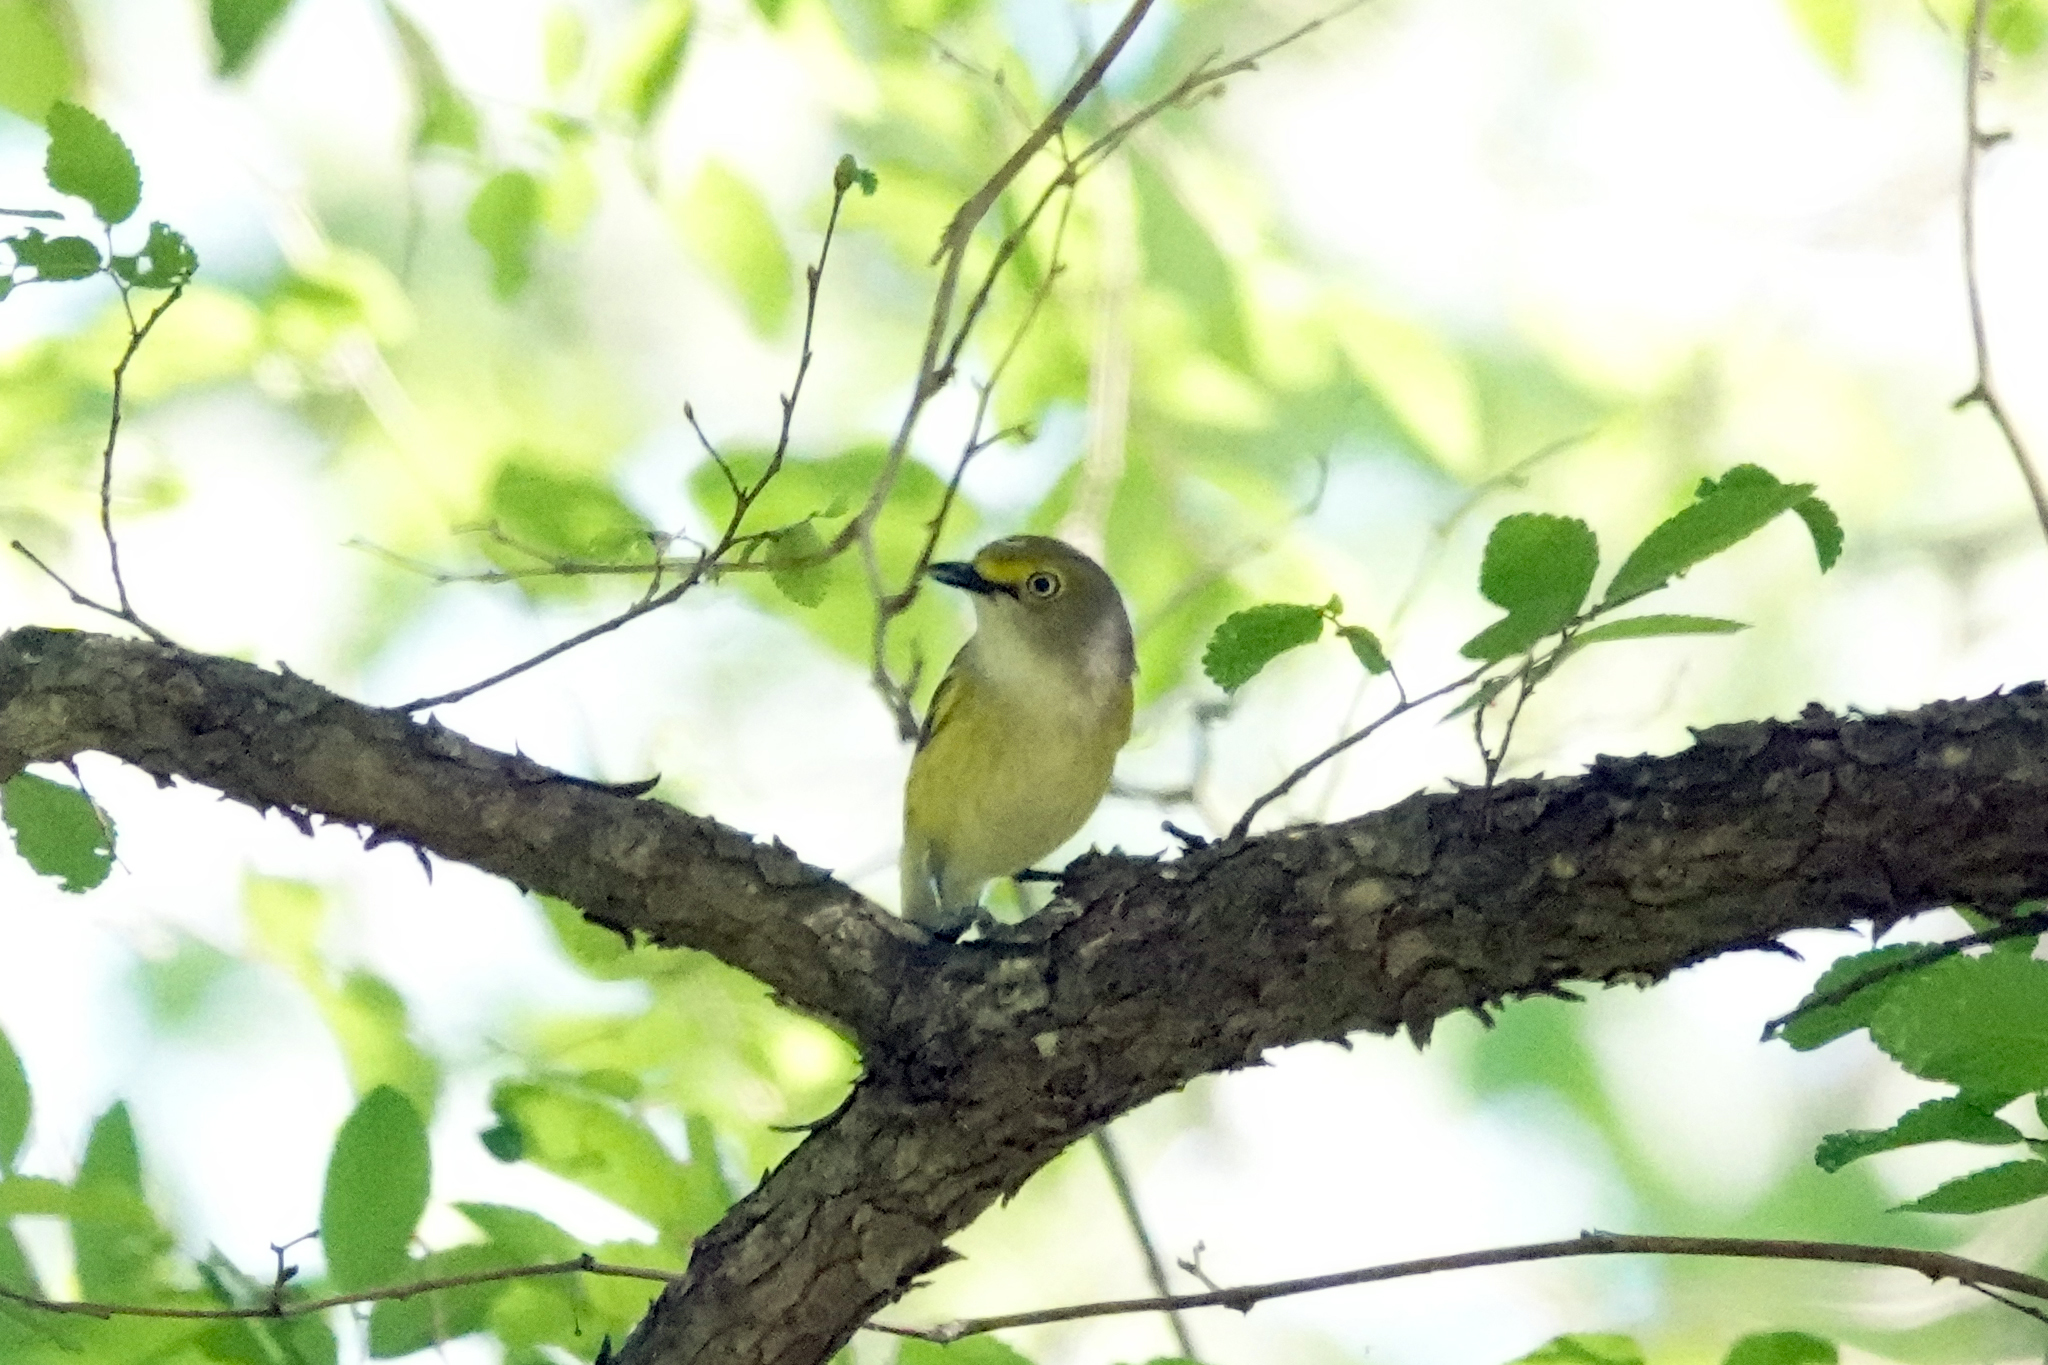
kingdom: Animalia
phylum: Chordata
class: Aves
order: Passeriformes
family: Vireonidae
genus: Vireo
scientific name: Vireo griseus
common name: White-eyed vireo
